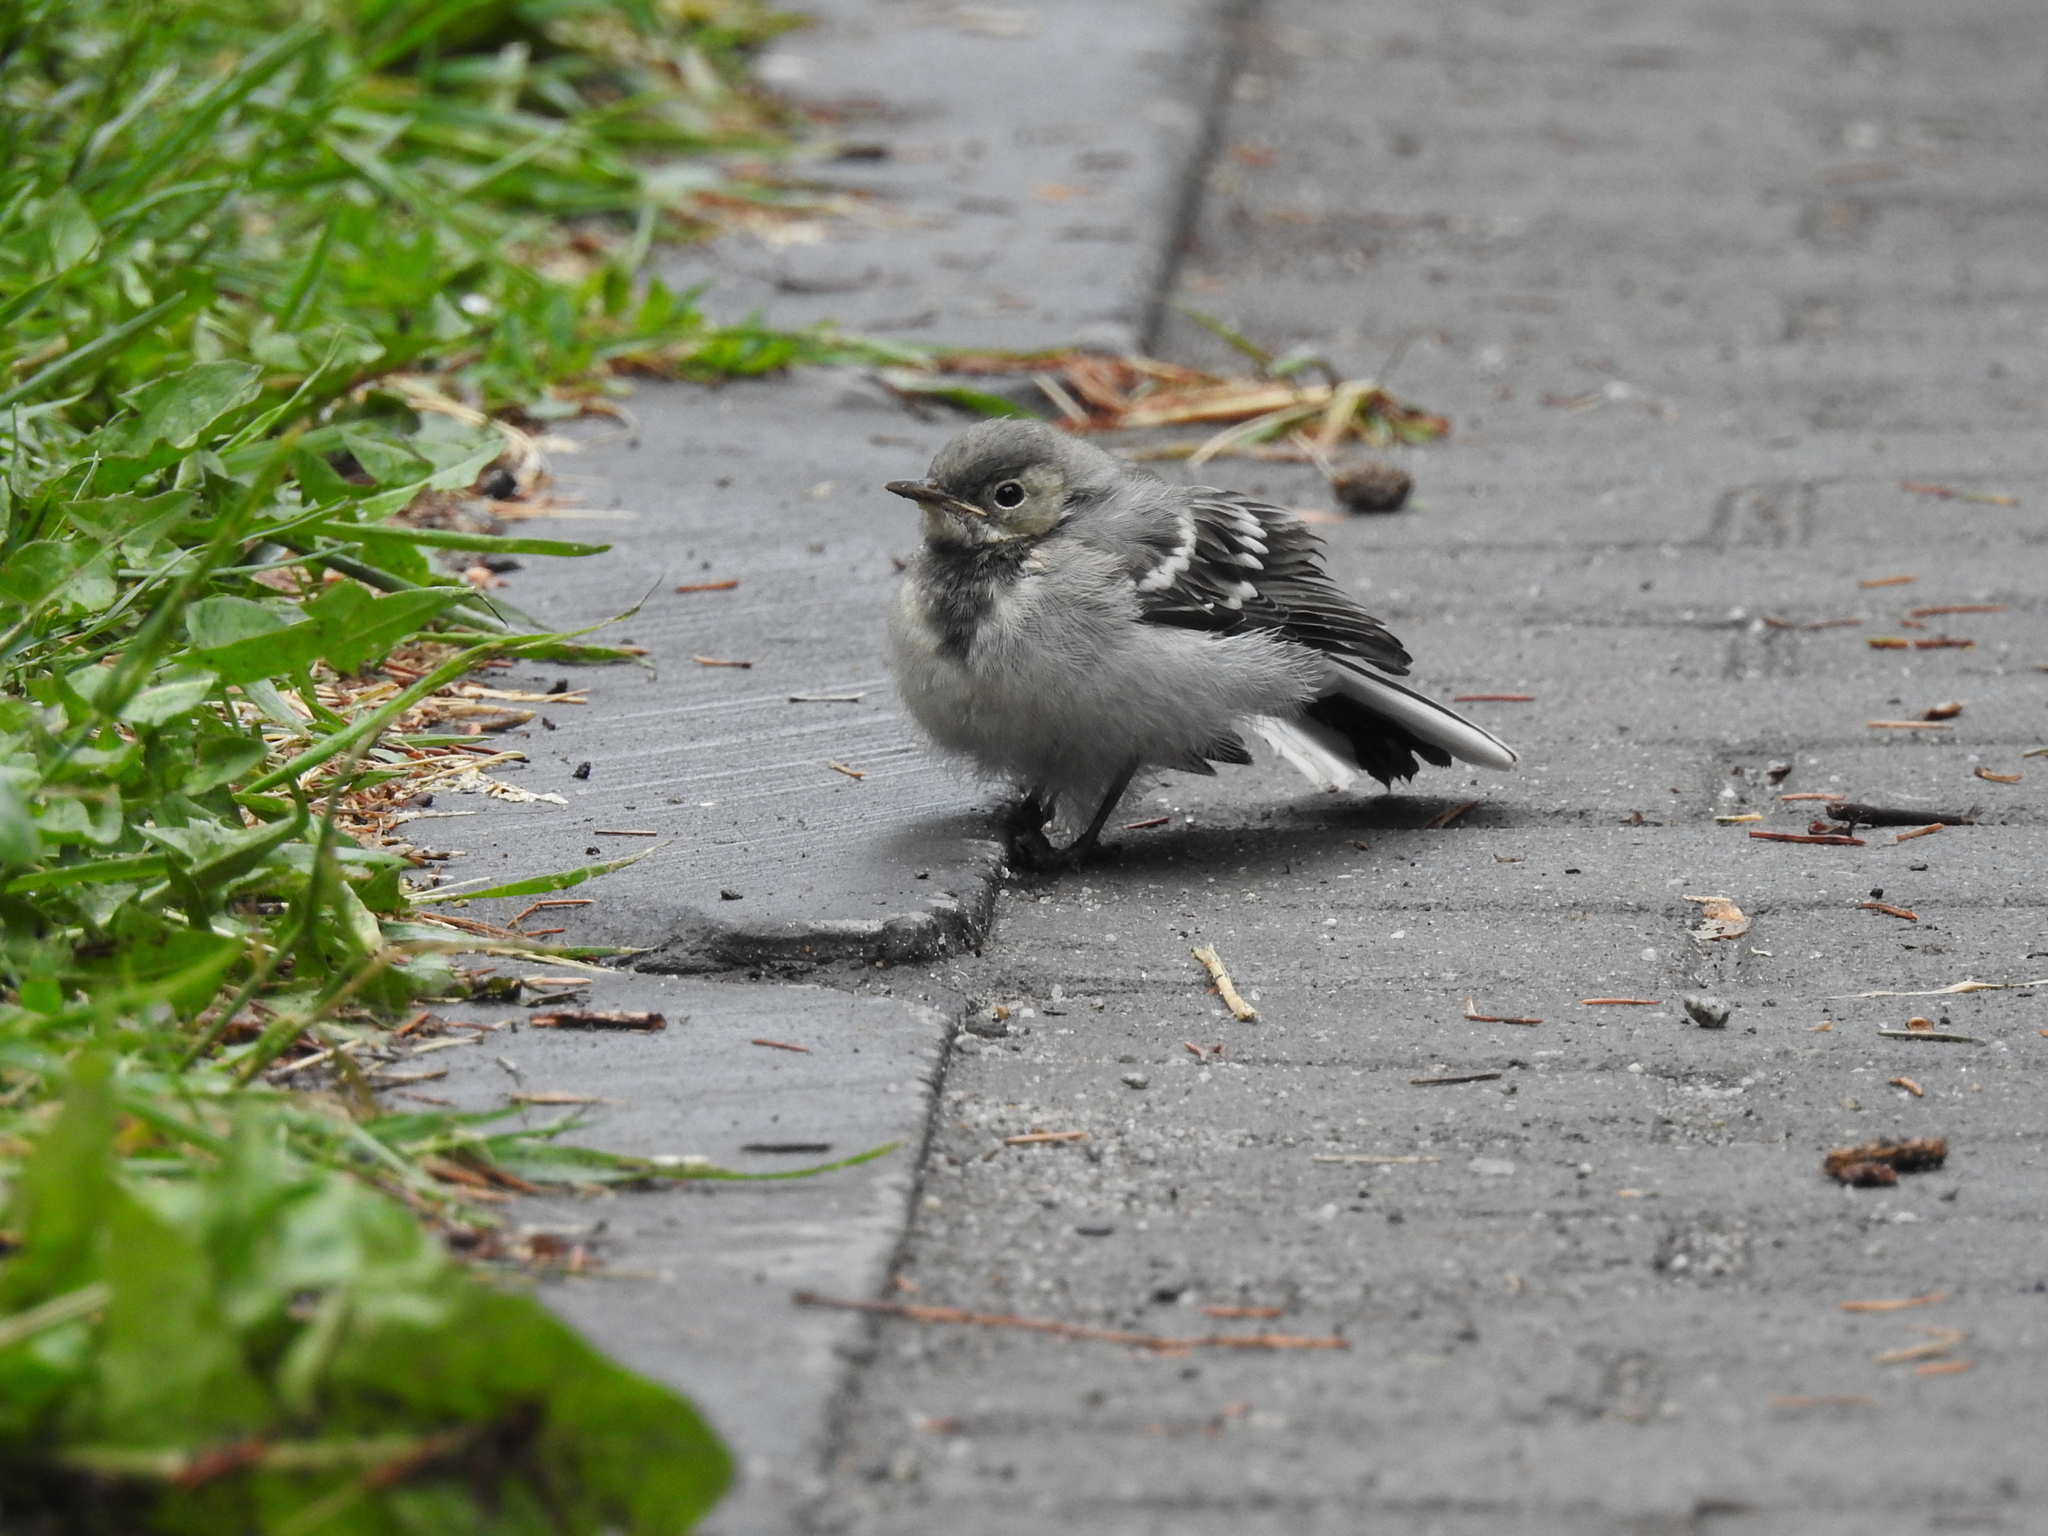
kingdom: Animalia
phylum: Chordata
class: Aves
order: Passeriformes
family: Motacillidae
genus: Motacilla
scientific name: Motacilla alba
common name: White wagtail
